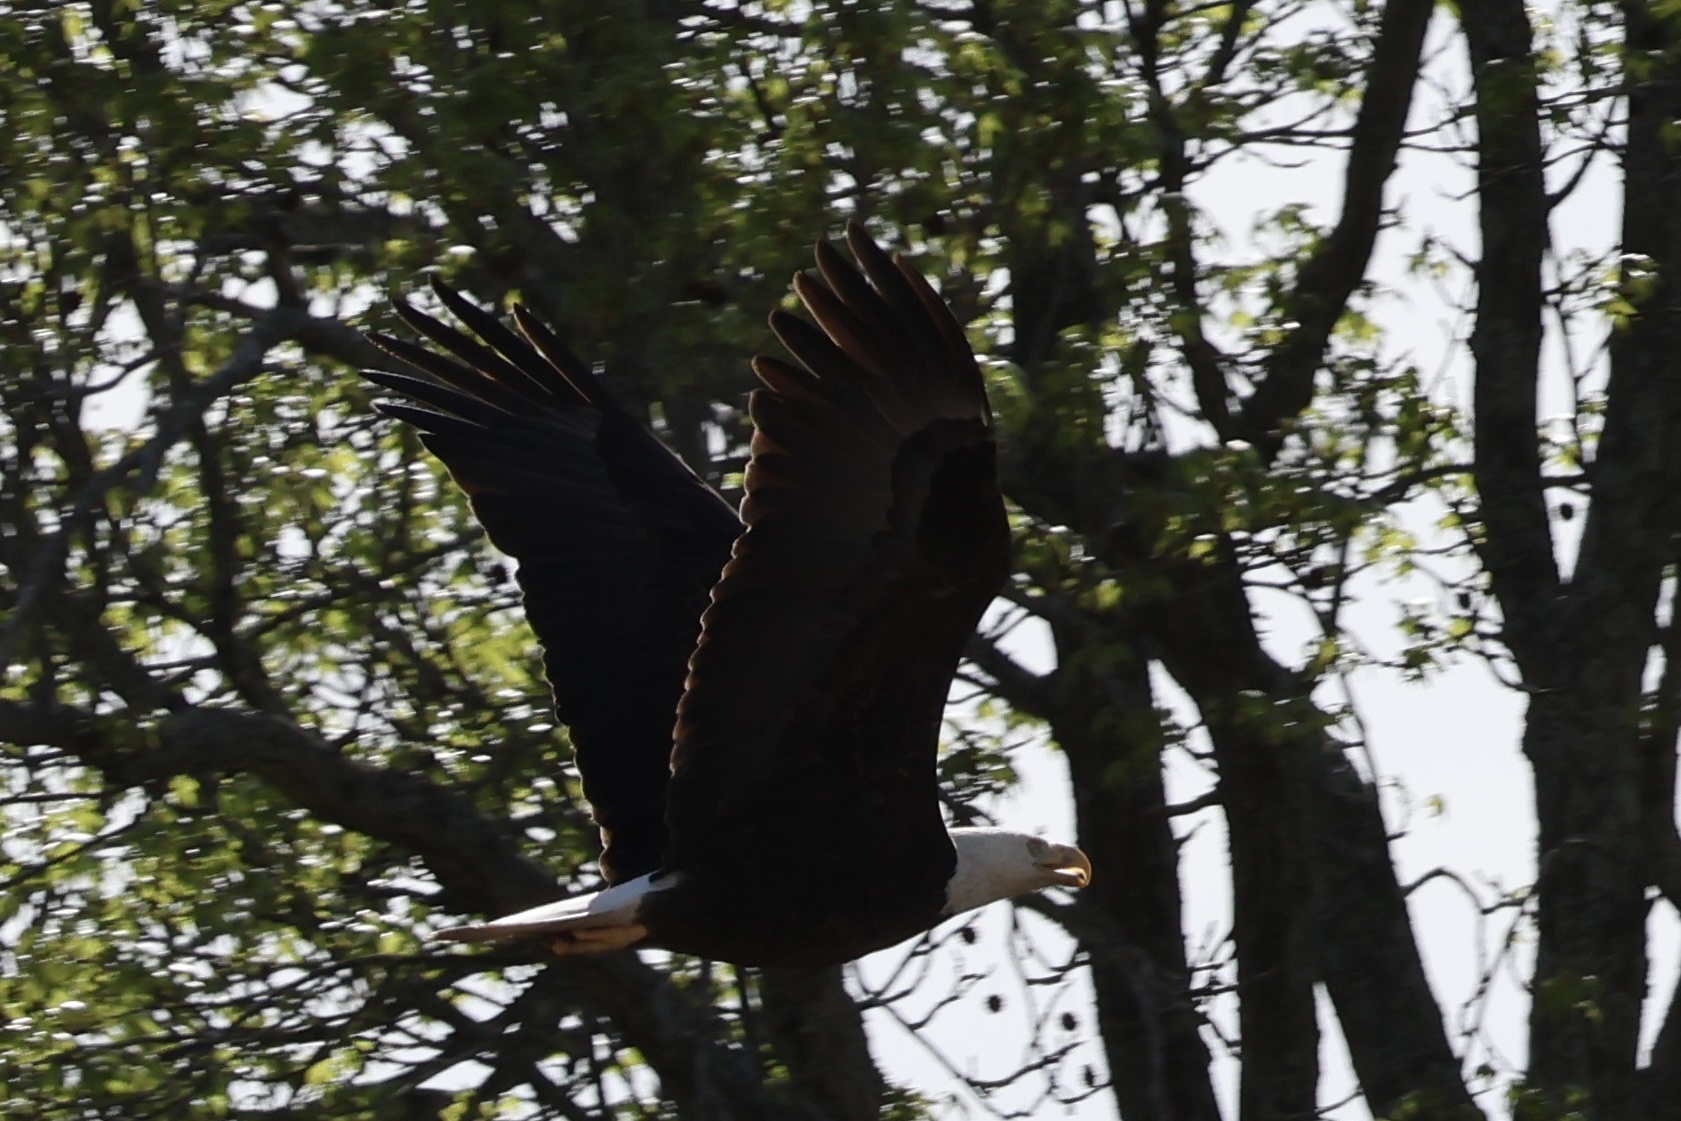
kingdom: Animalia
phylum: Chordata
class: Aves
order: Accipitriformes
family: Accipitridae
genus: Haliaeetus
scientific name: Haliaeetus leucocephalus
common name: Bald eagle
